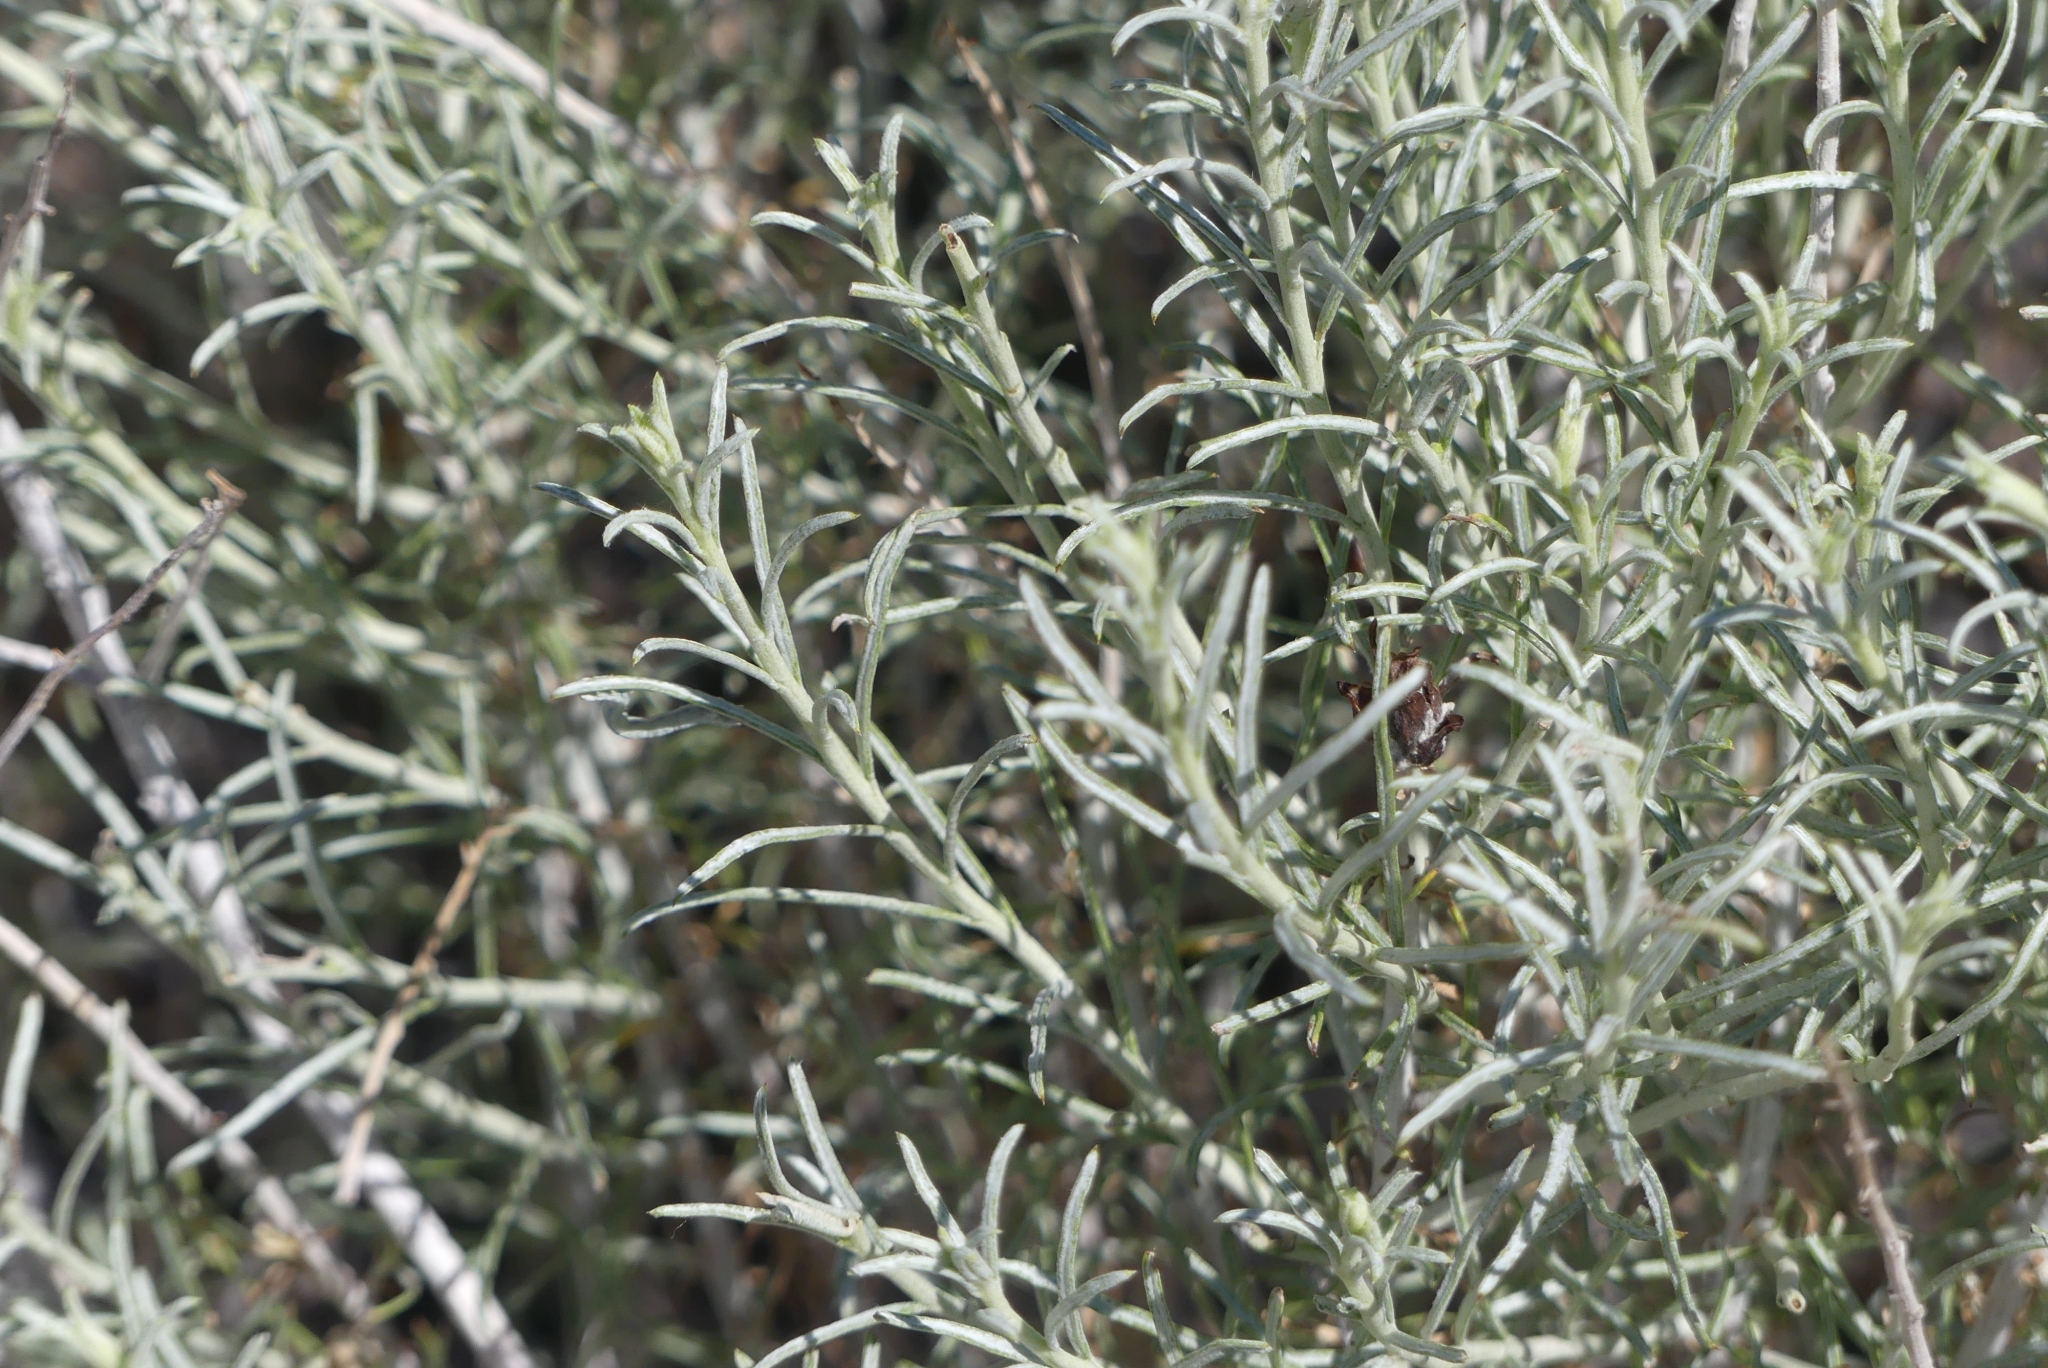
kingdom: Plantae
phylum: Tracheophyta
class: Magnoliopsida
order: Asterales
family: Asteraceae
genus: Ericameria
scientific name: Ericameria nauseosa
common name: Rubber rabbitbrush
